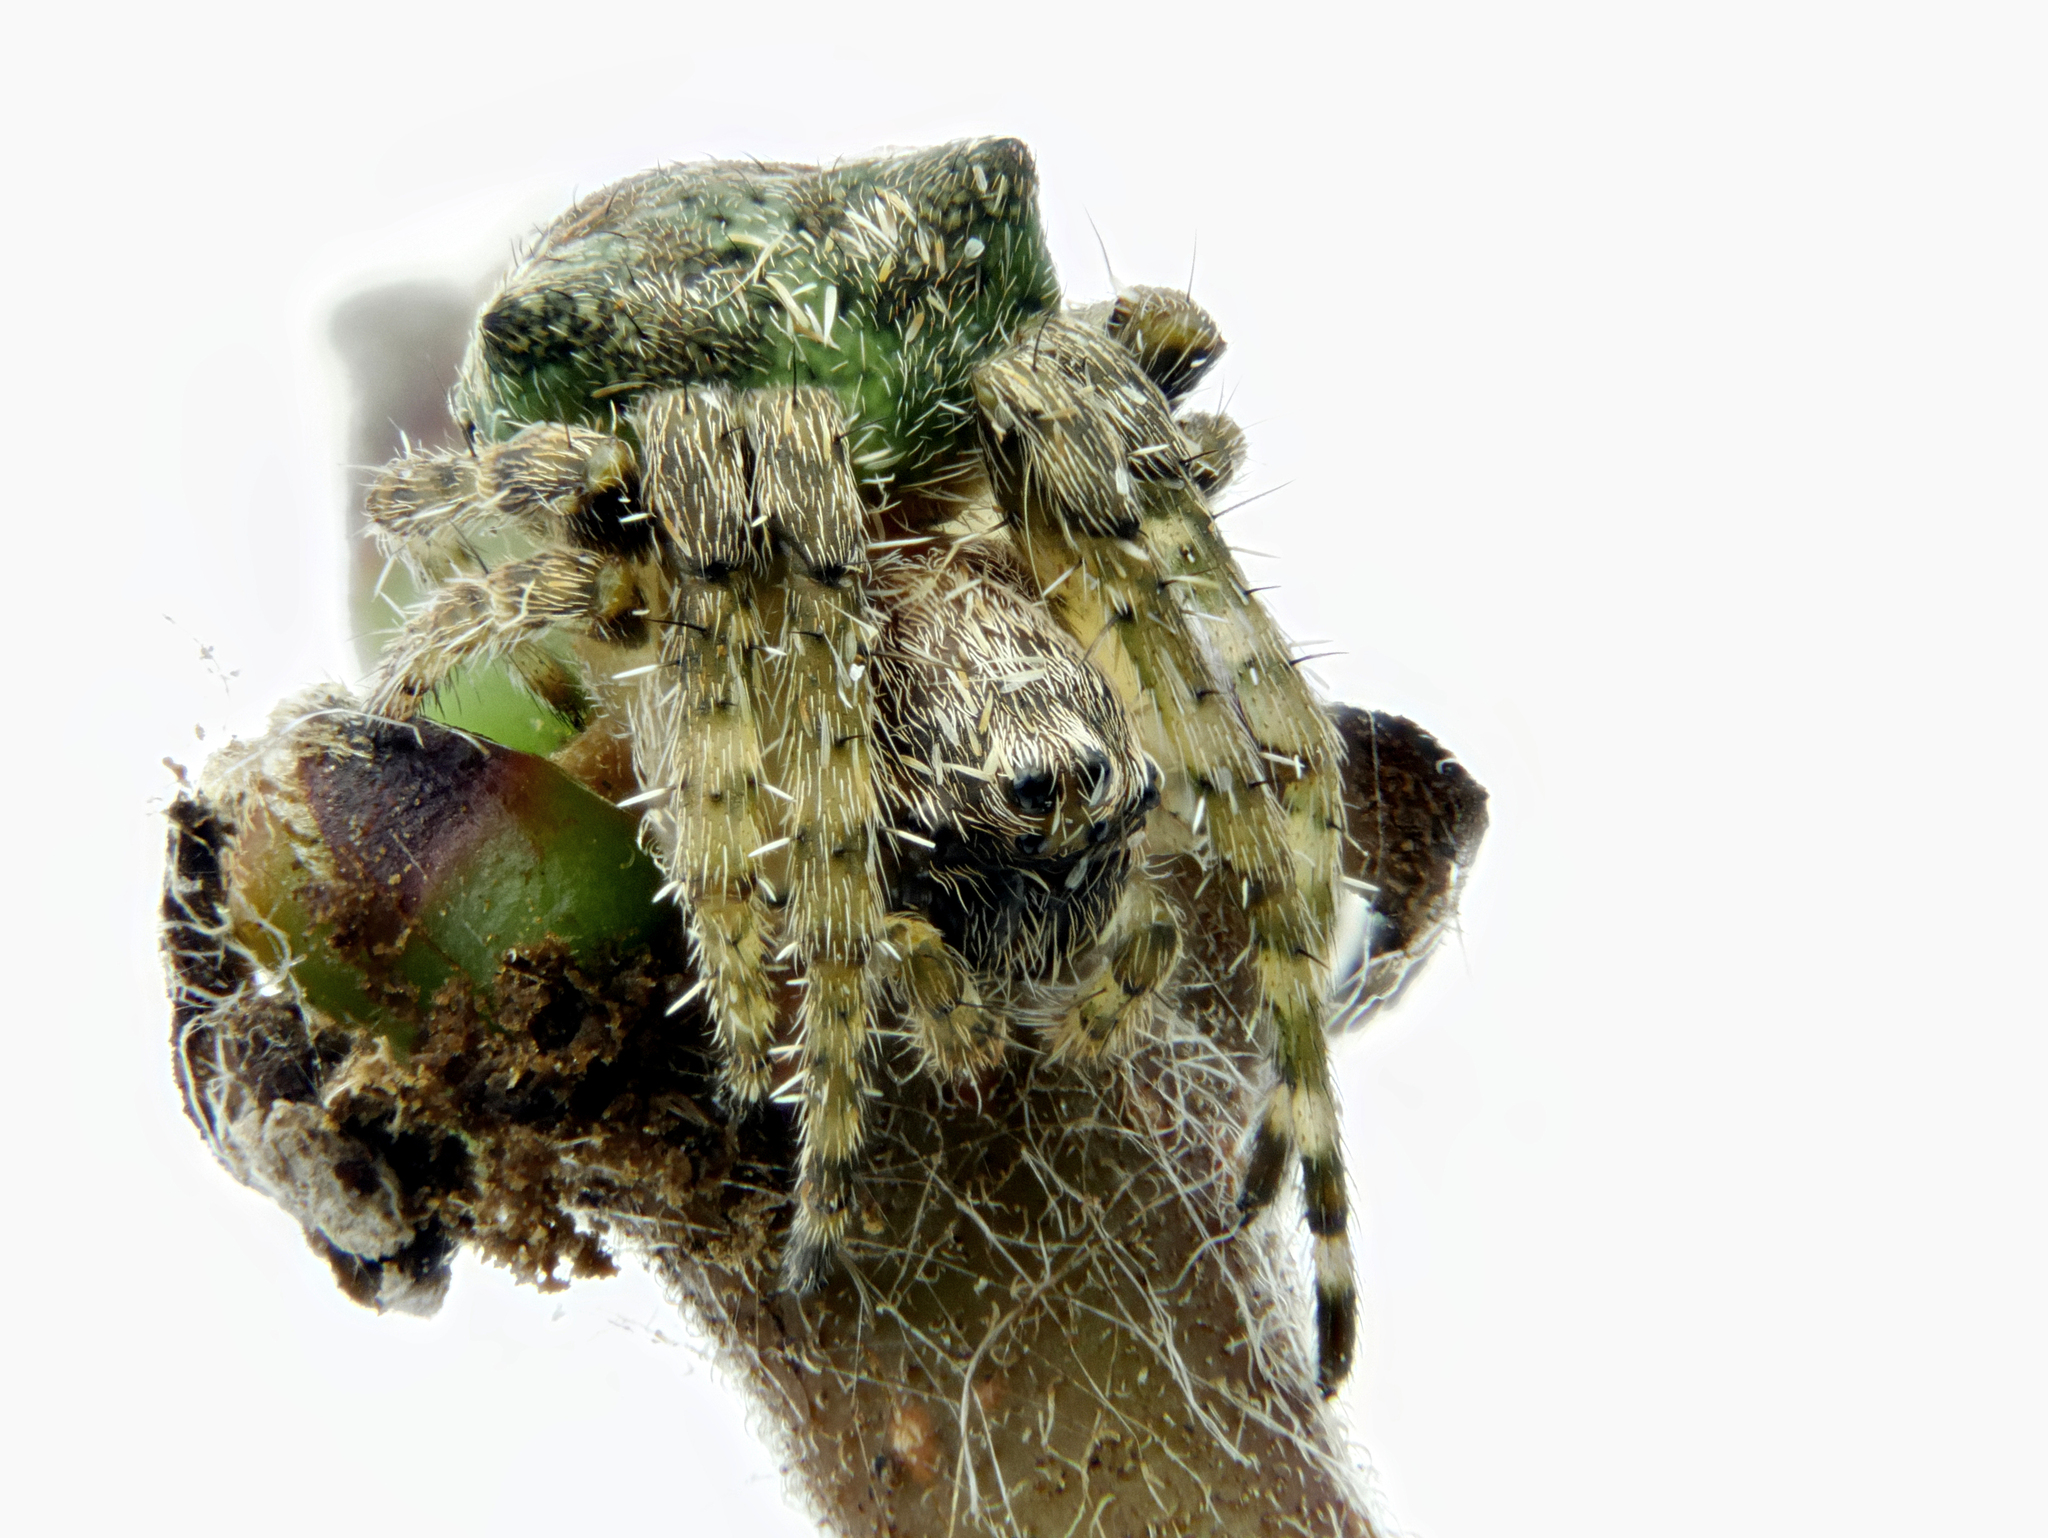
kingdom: Animalia
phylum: Arthropoda
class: Arachnida
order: Araneae
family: Araneidae
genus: Gibbaranea
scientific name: Gibbaranea gibbosa
